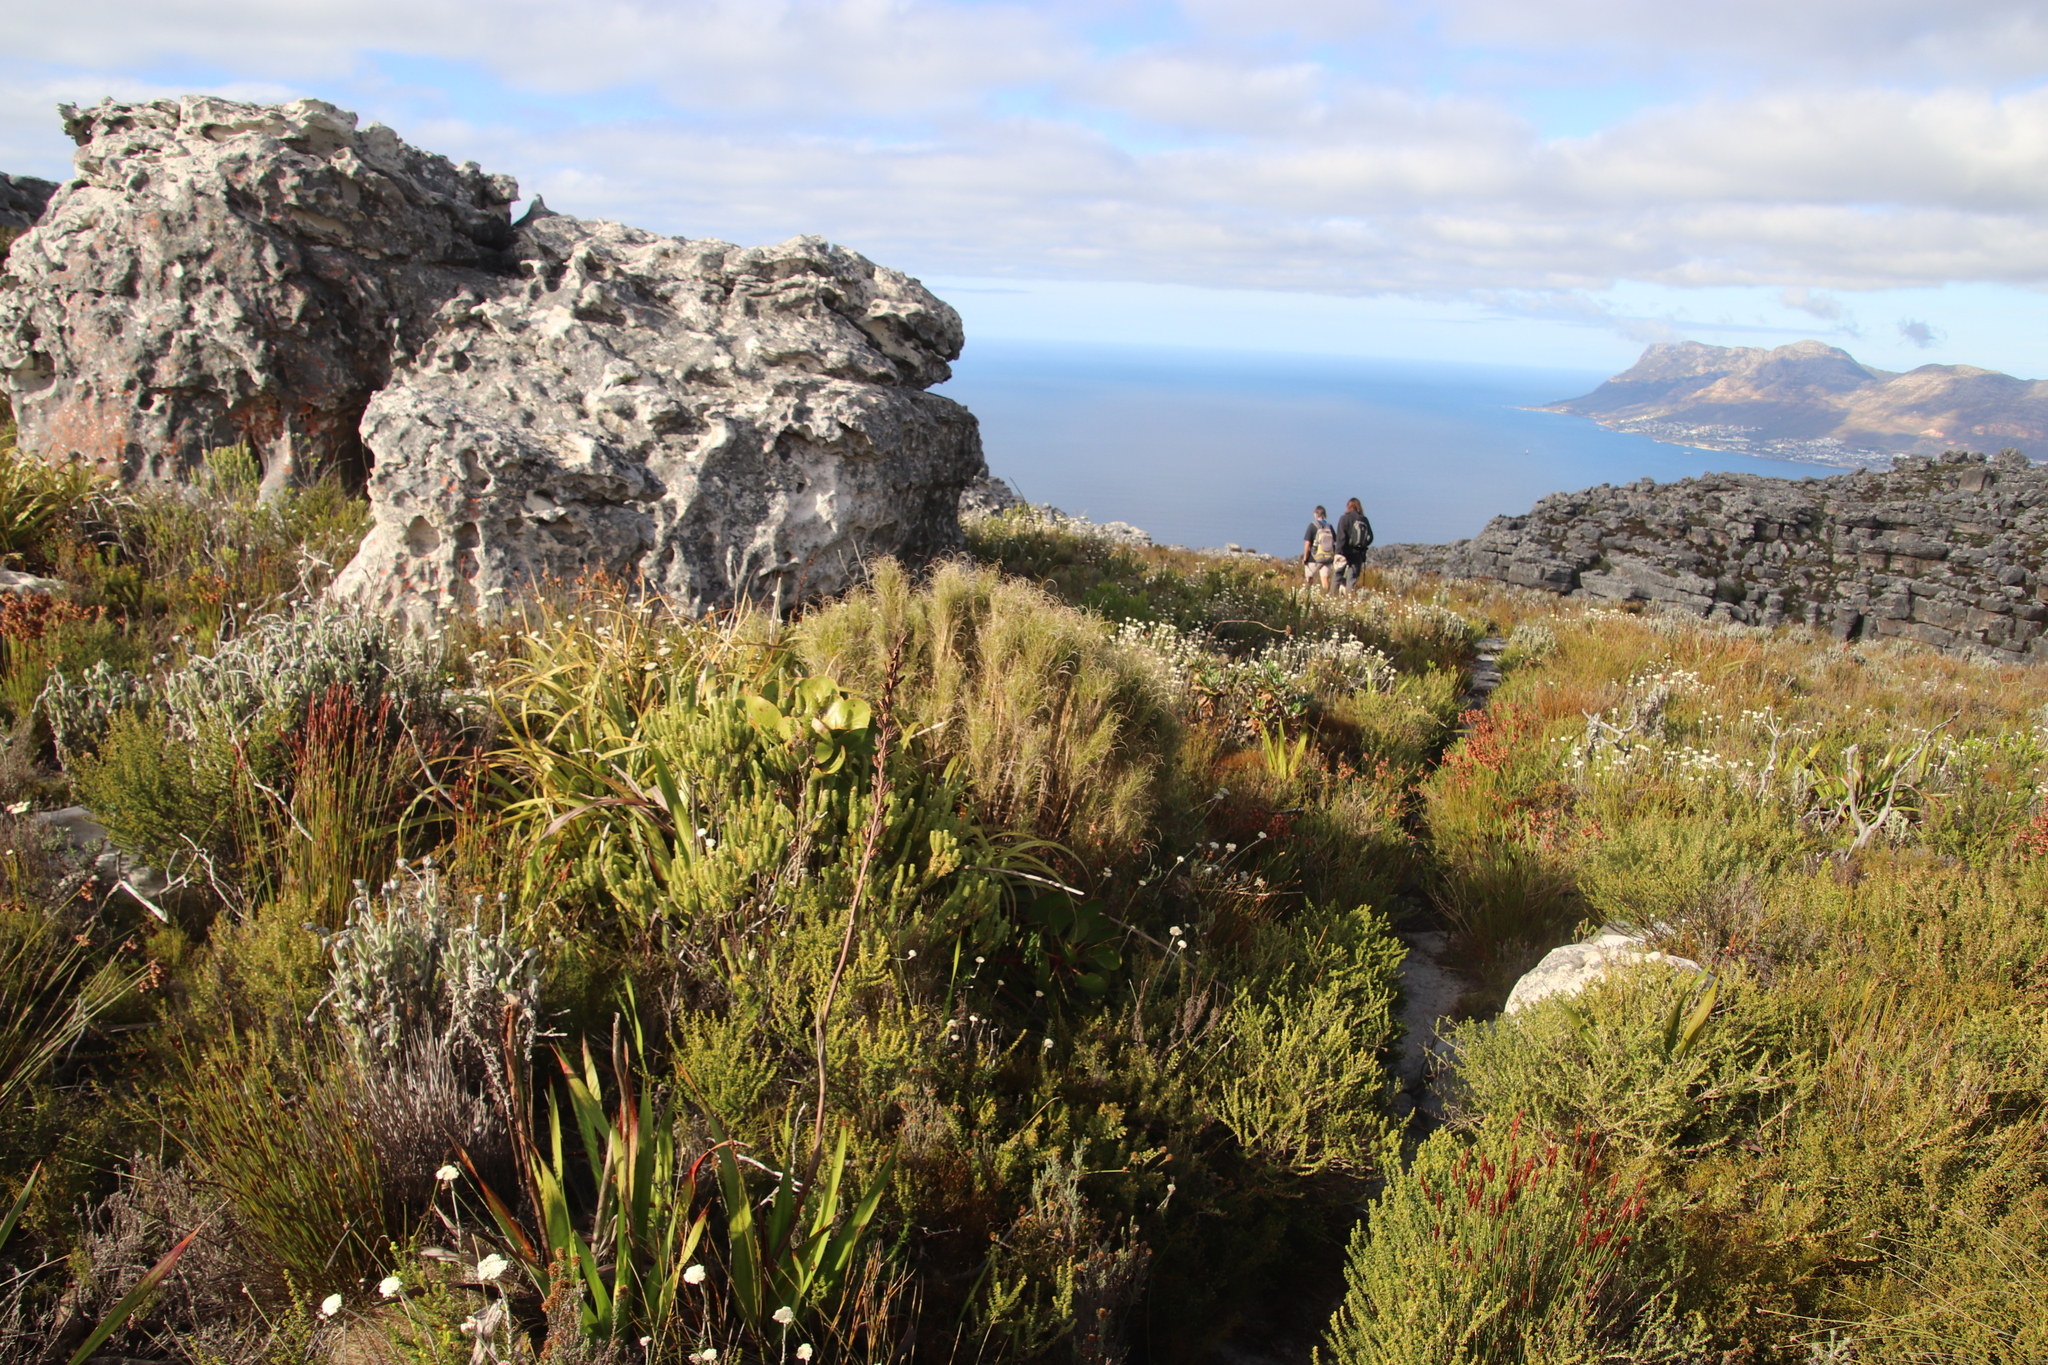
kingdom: Plantae
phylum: Tracheophyta
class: Liliopsida
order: Poales
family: Poaceae
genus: Pseudopentameris
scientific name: Pseudopentameris macrantha
